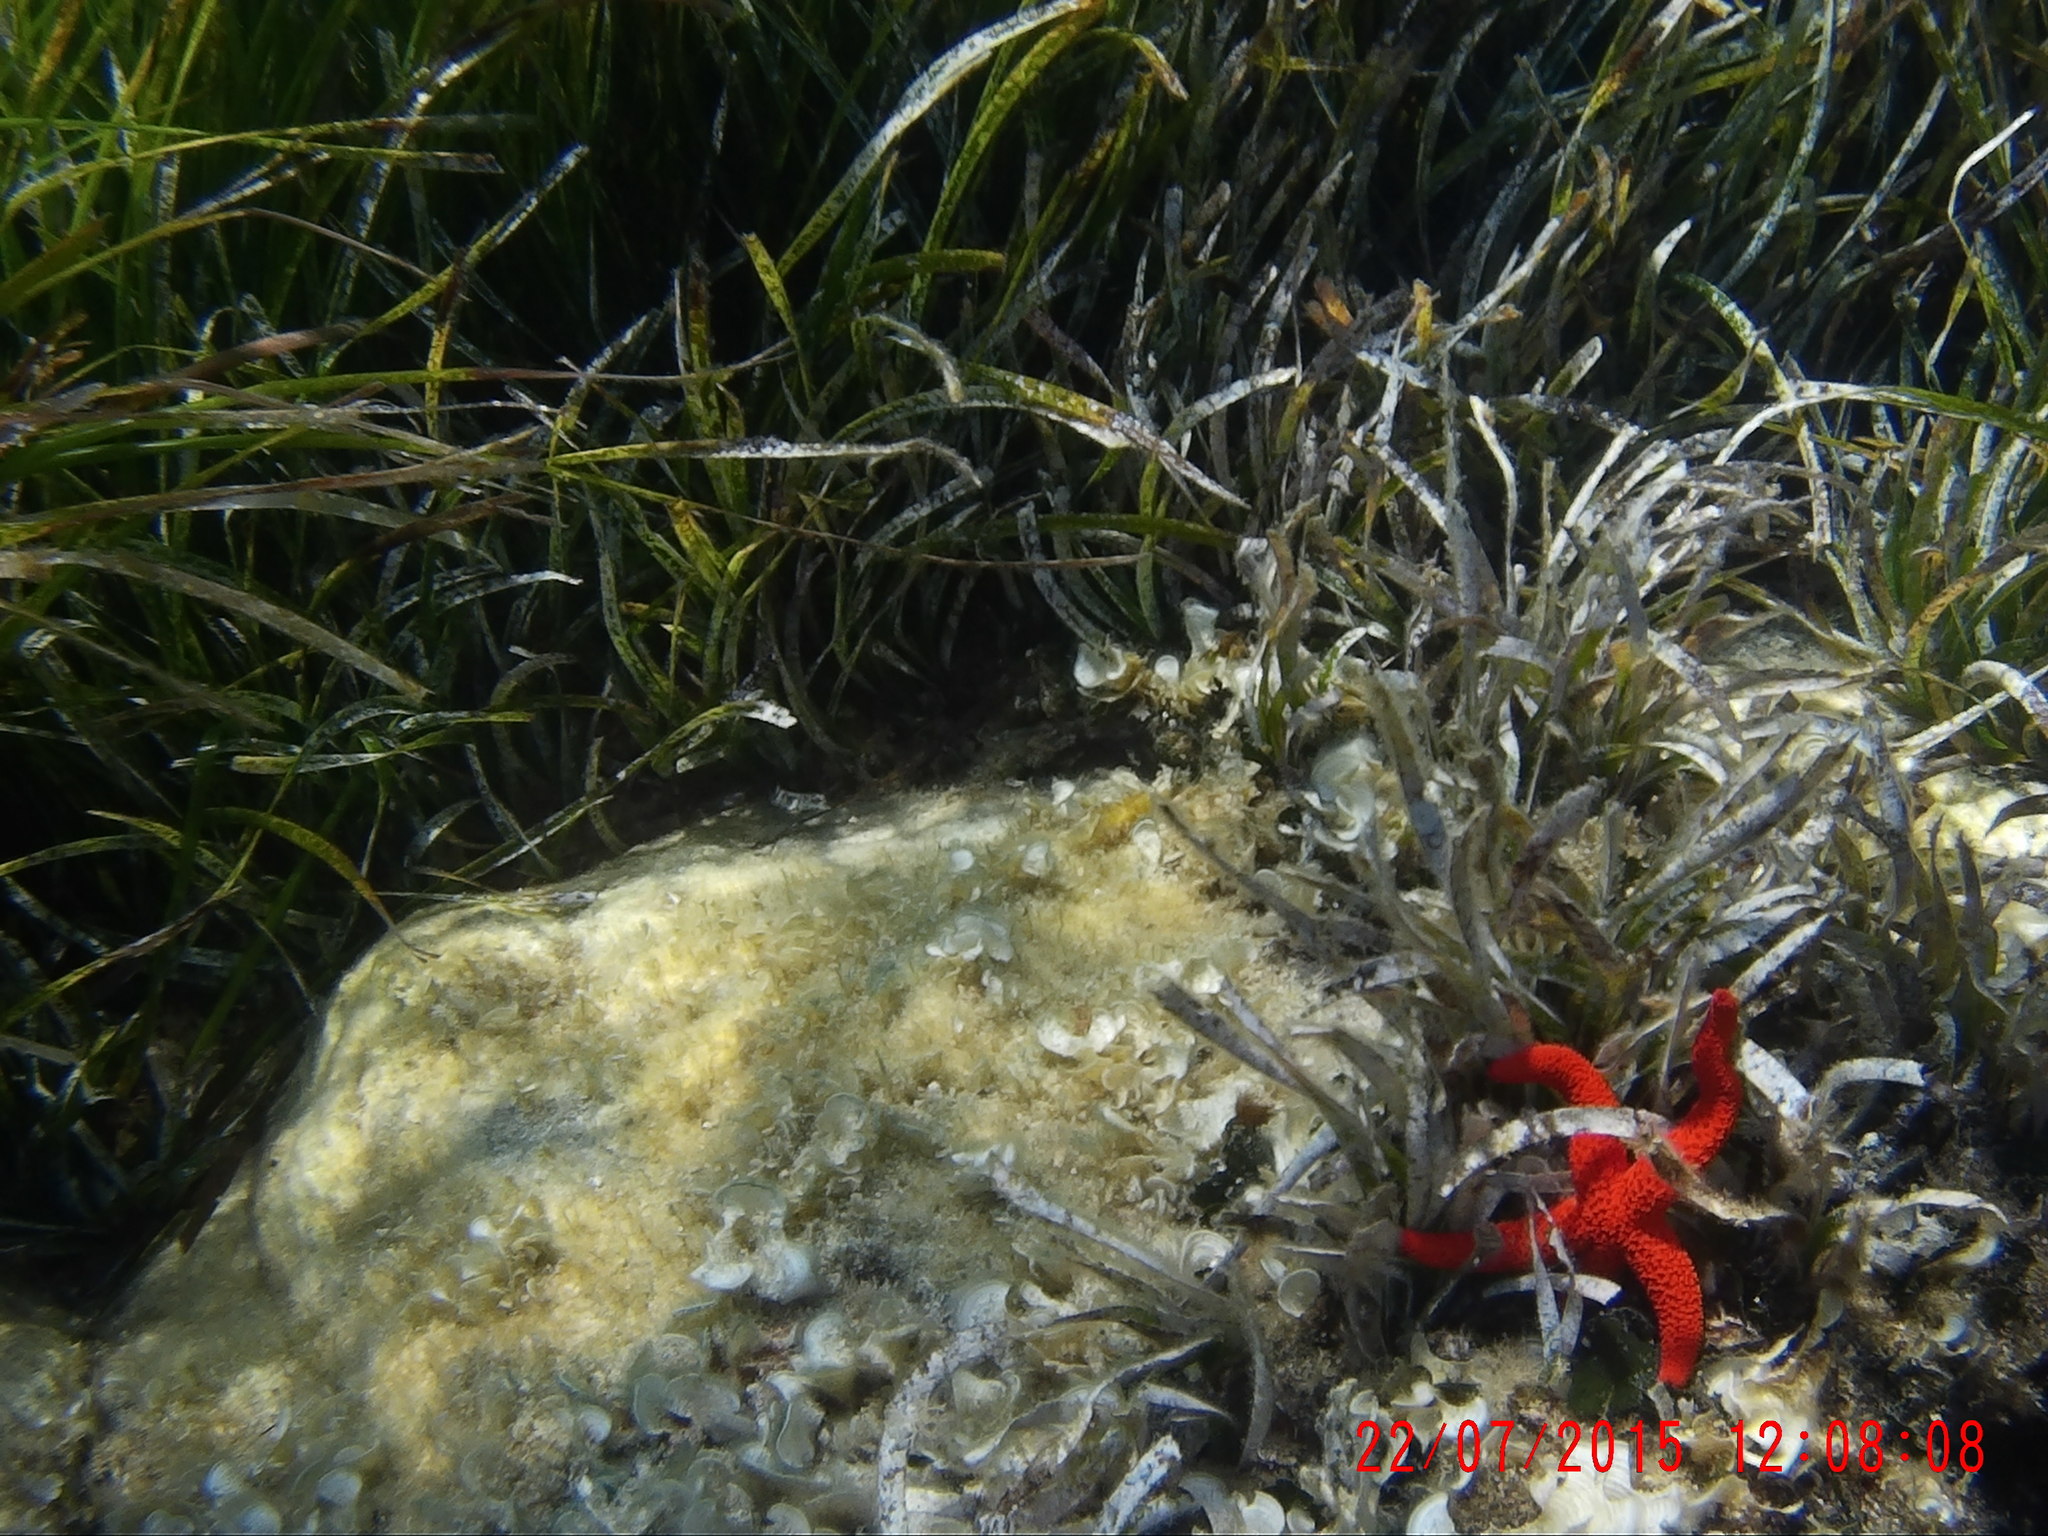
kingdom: Animalia
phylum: Echinodermata
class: Asteroidea
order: Spinulosida
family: Echinasteridae
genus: Echinaster
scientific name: Echinaster sepositus
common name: Red starfish
